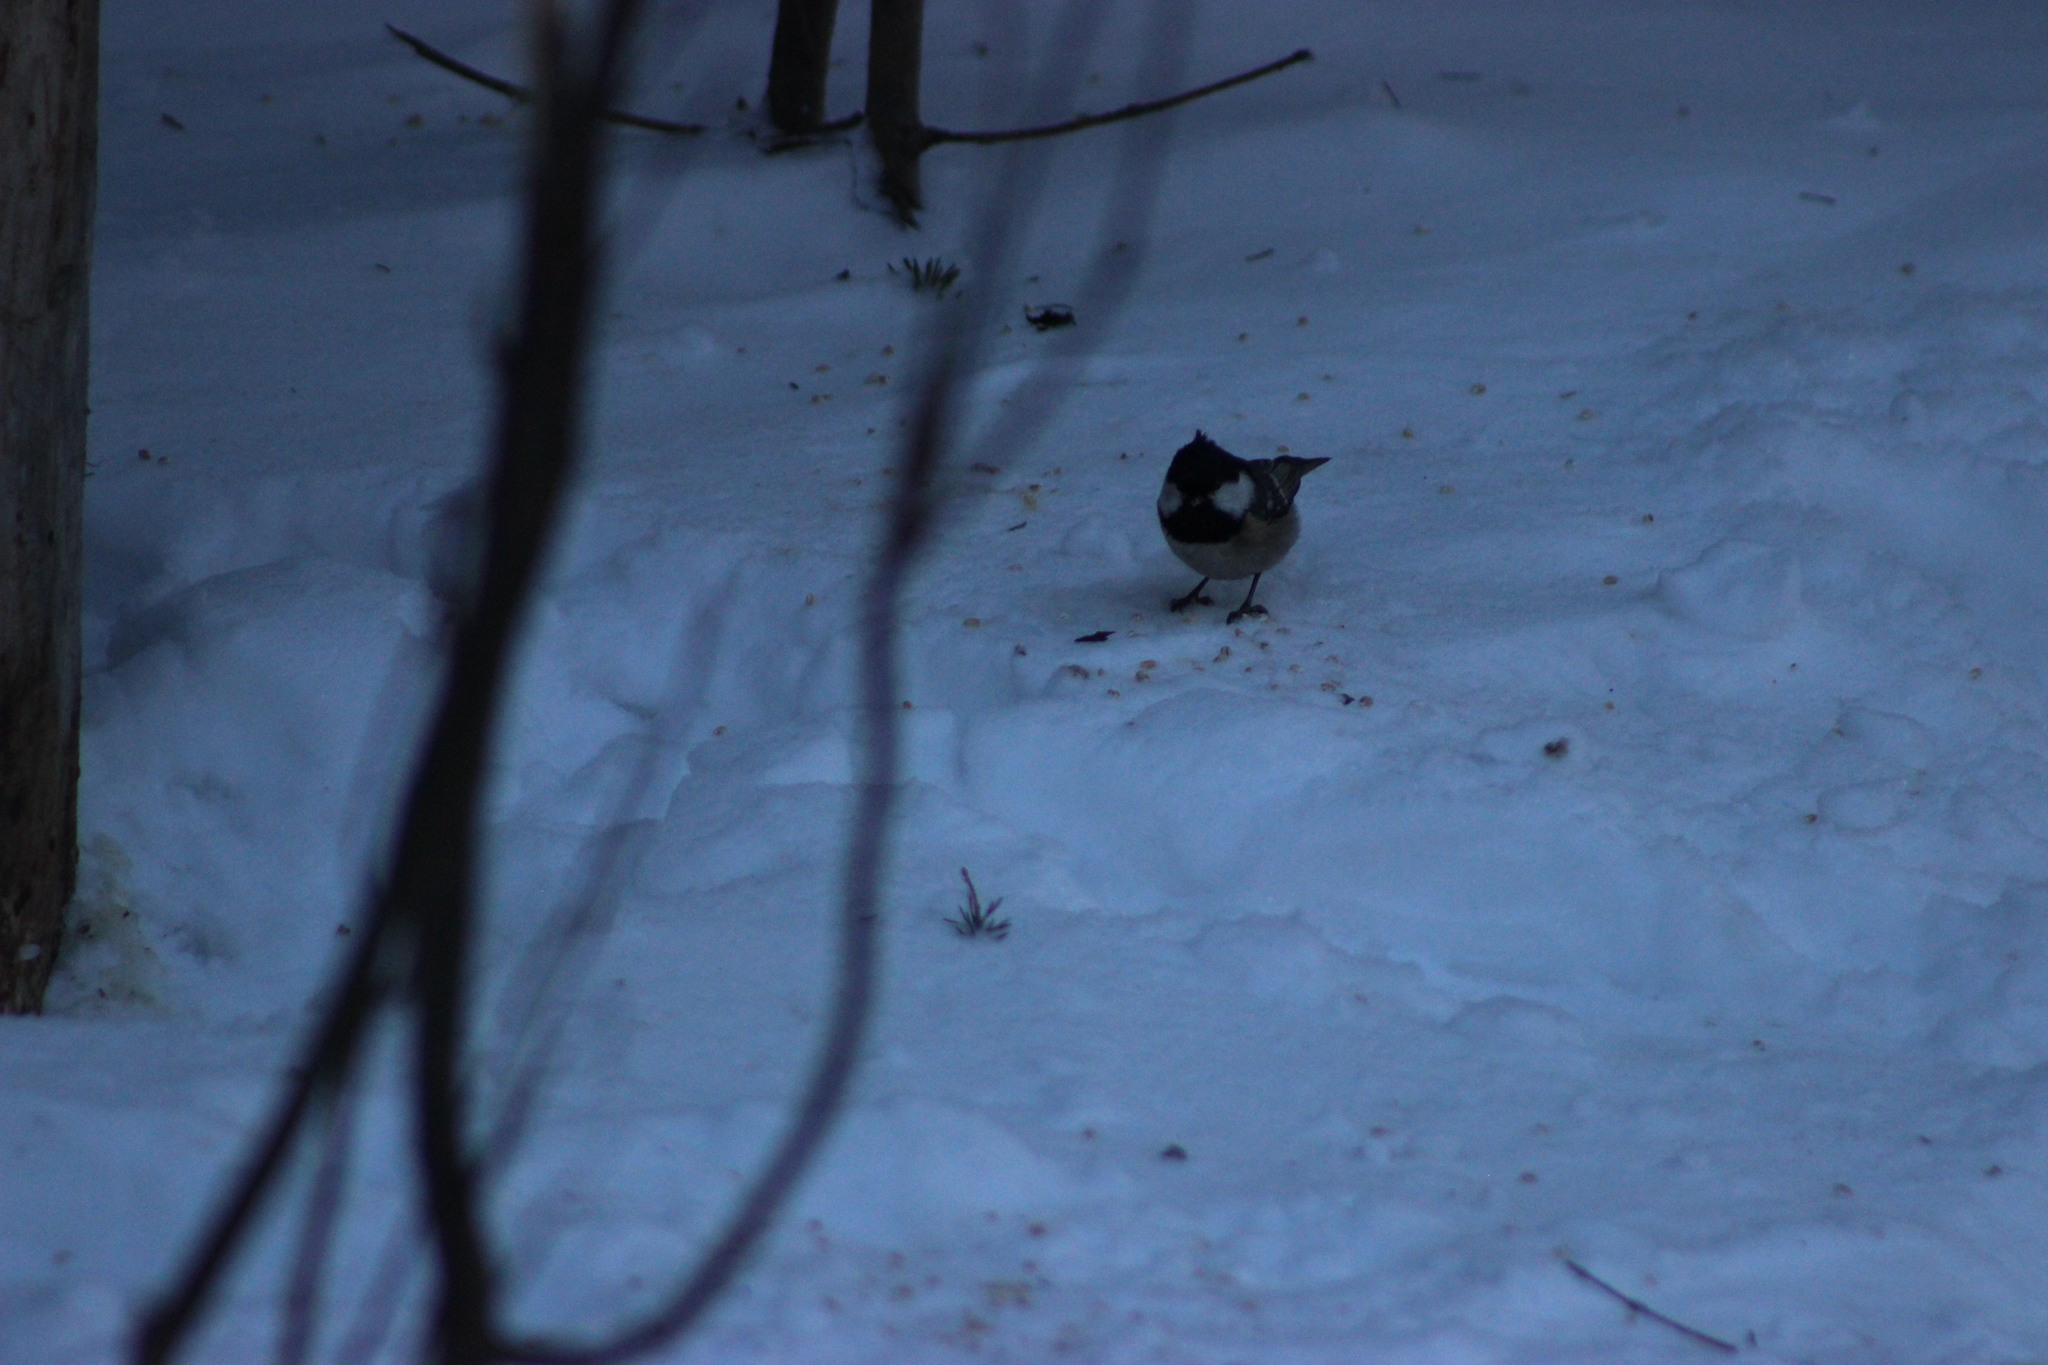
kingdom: Animalia
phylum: Chordata
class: Aves
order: Passeriformes
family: Paridae
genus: Periparus
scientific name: Periparus ater
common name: Coal tit
